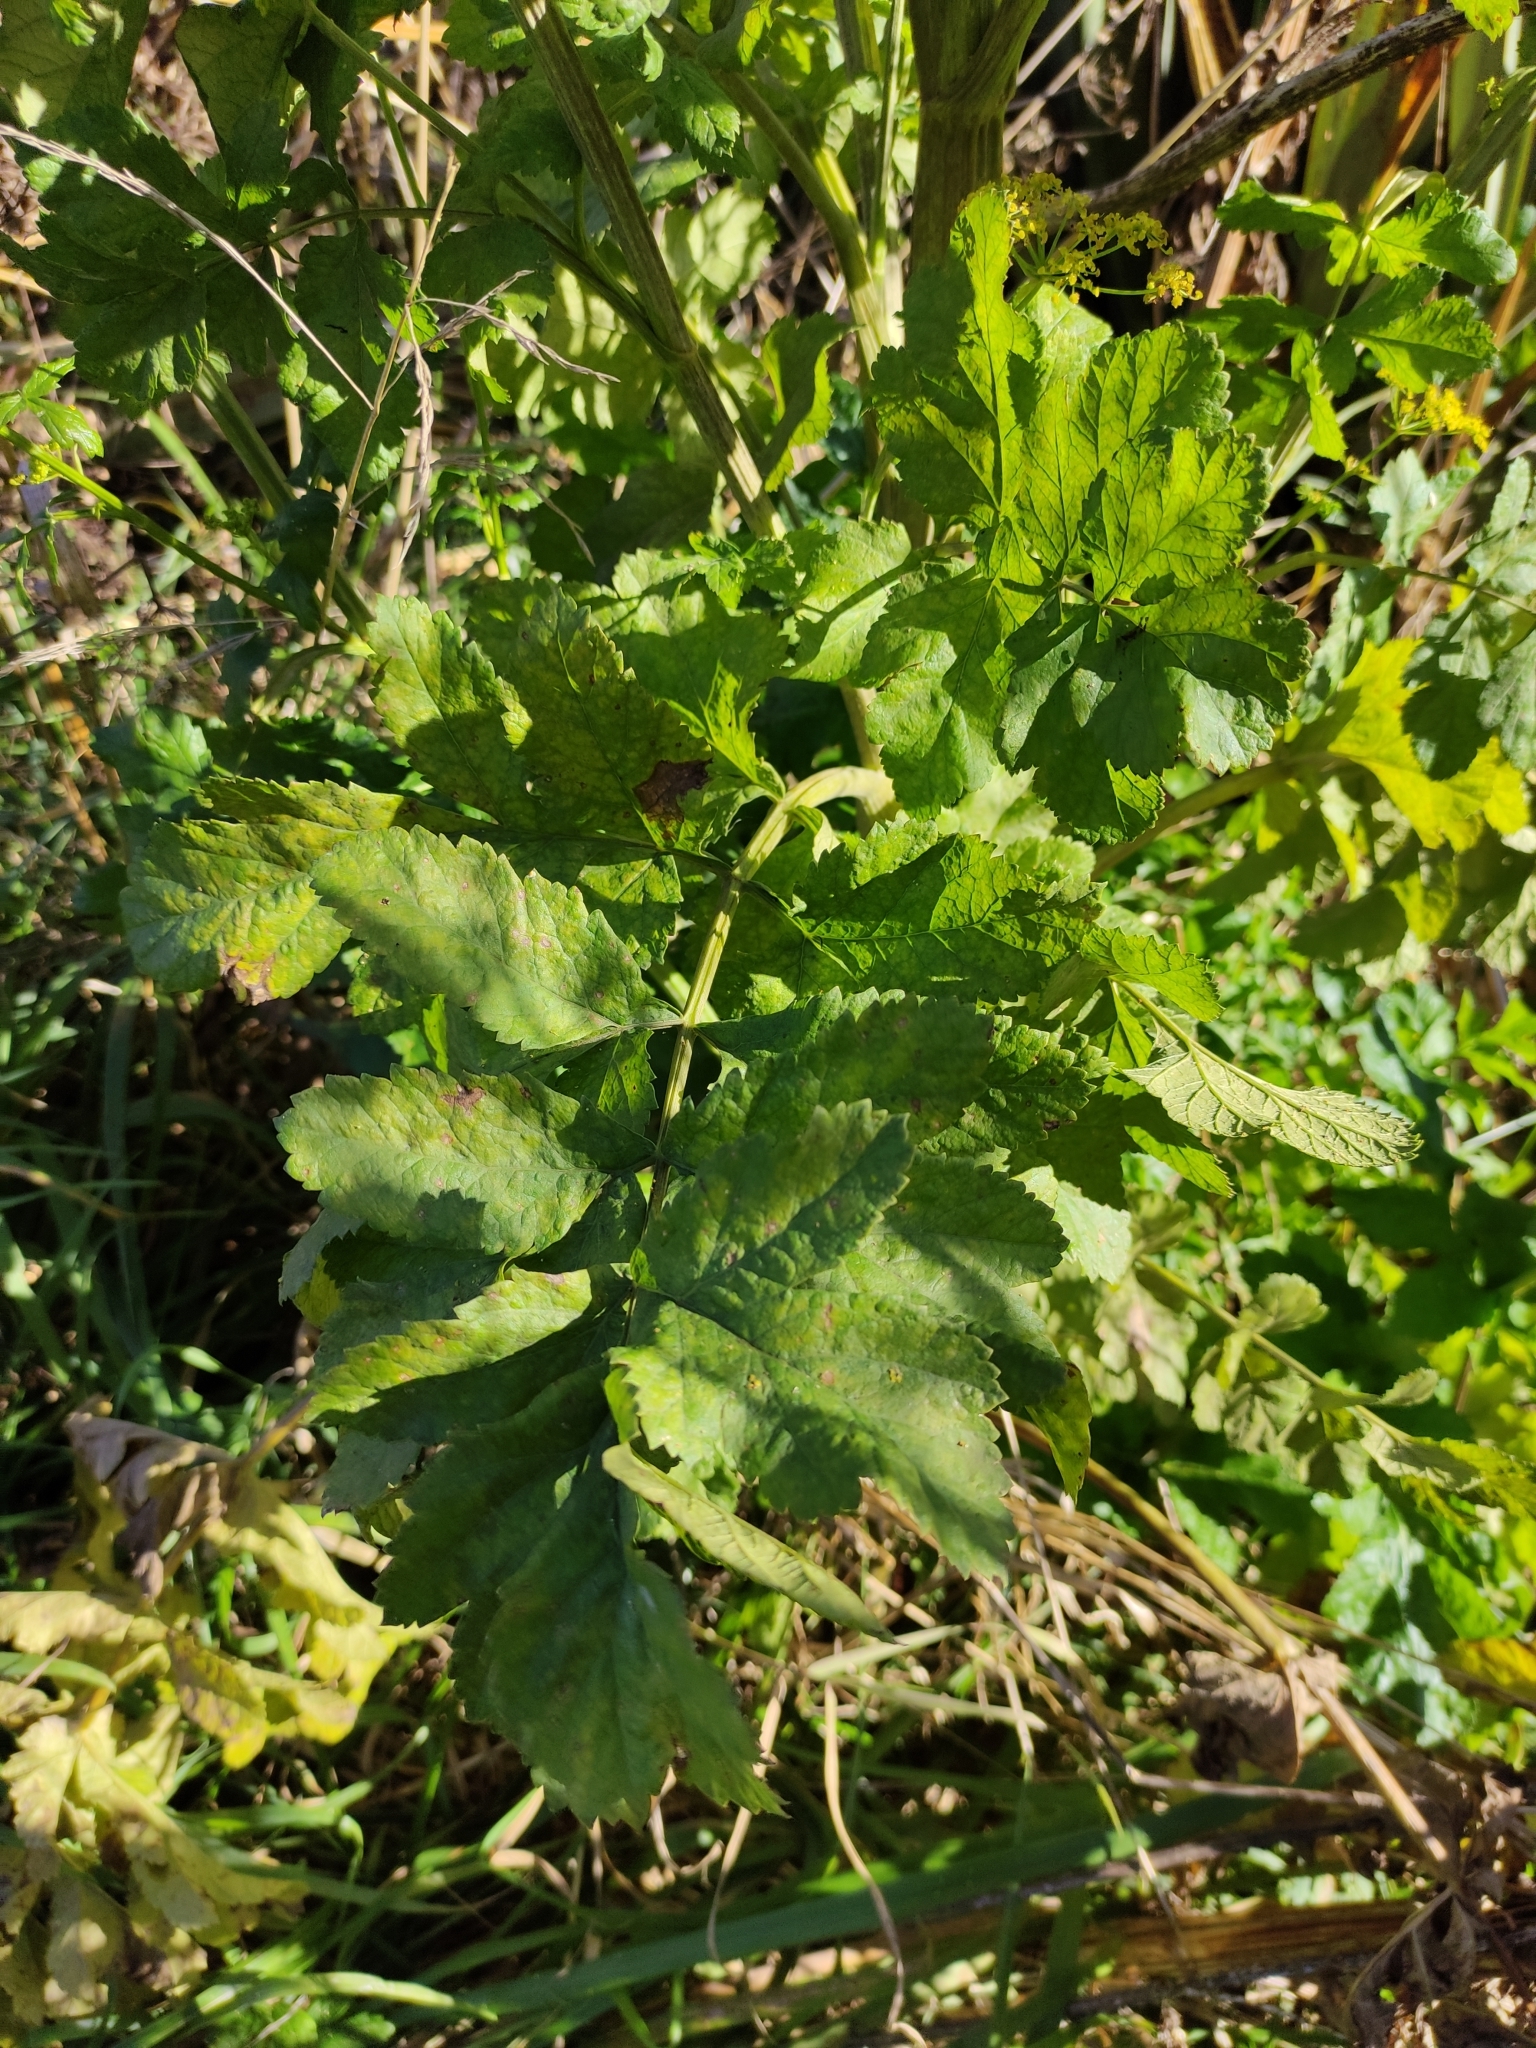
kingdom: Plantae
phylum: Tracheophyta
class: Magnoliopsida
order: Apiales
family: Apiaceae
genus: Pastinaca
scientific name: Pastinaca sativa
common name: Wild parsnip
